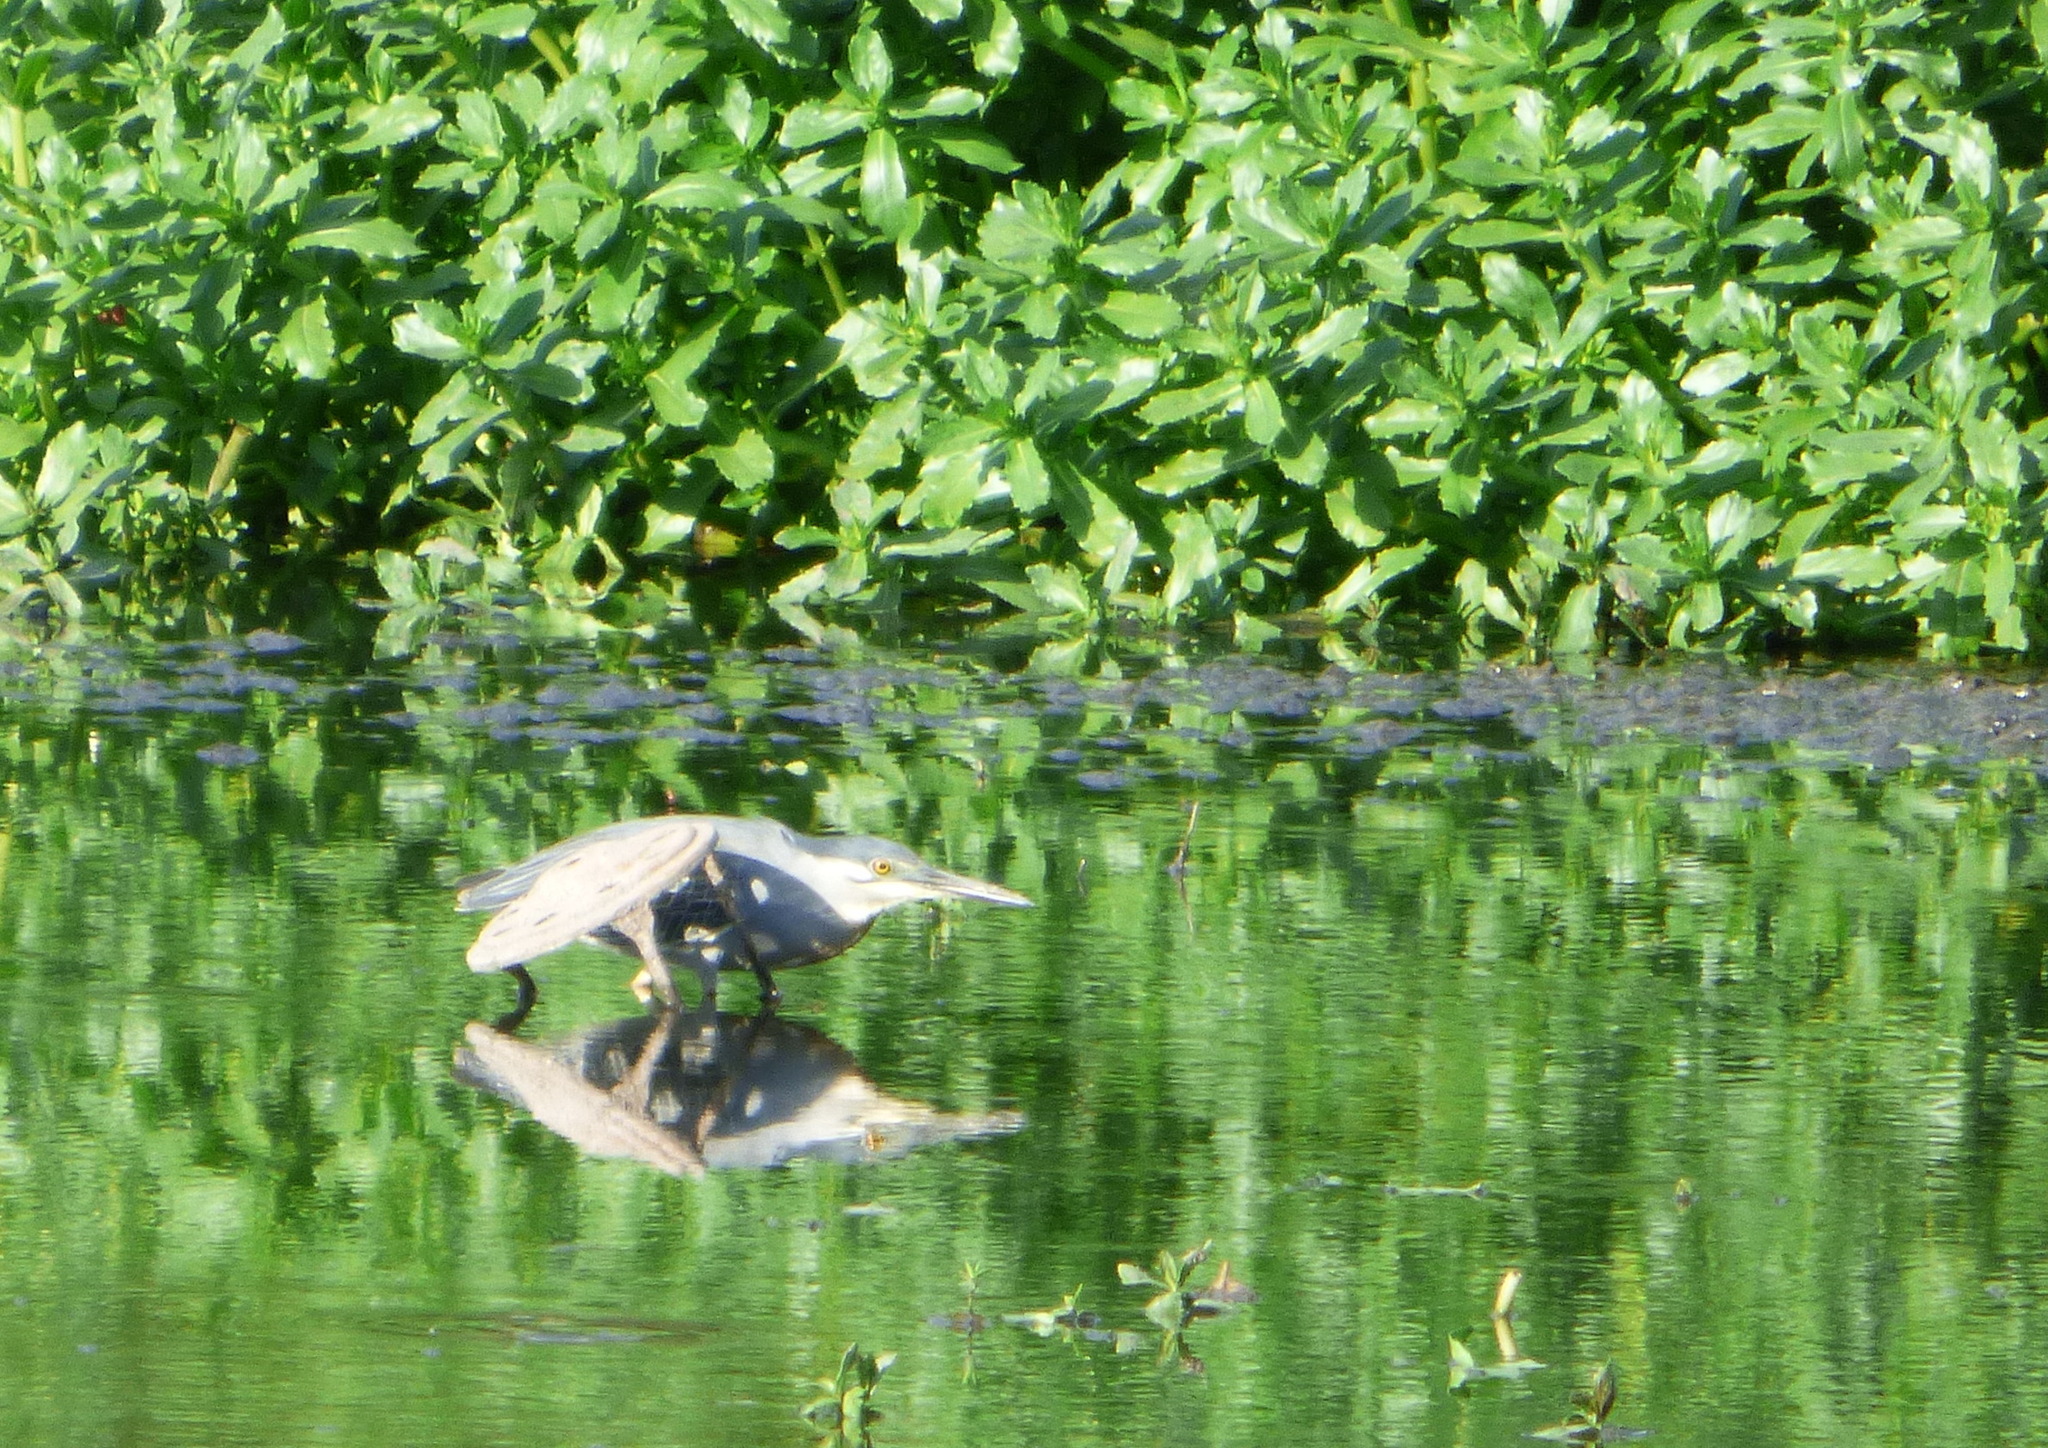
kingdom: Animalia
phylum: Chordata
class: Aves
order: Pelecaniformes
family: Ardeidae
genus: Butorides
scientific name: Butorides striata
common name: Striated heron
